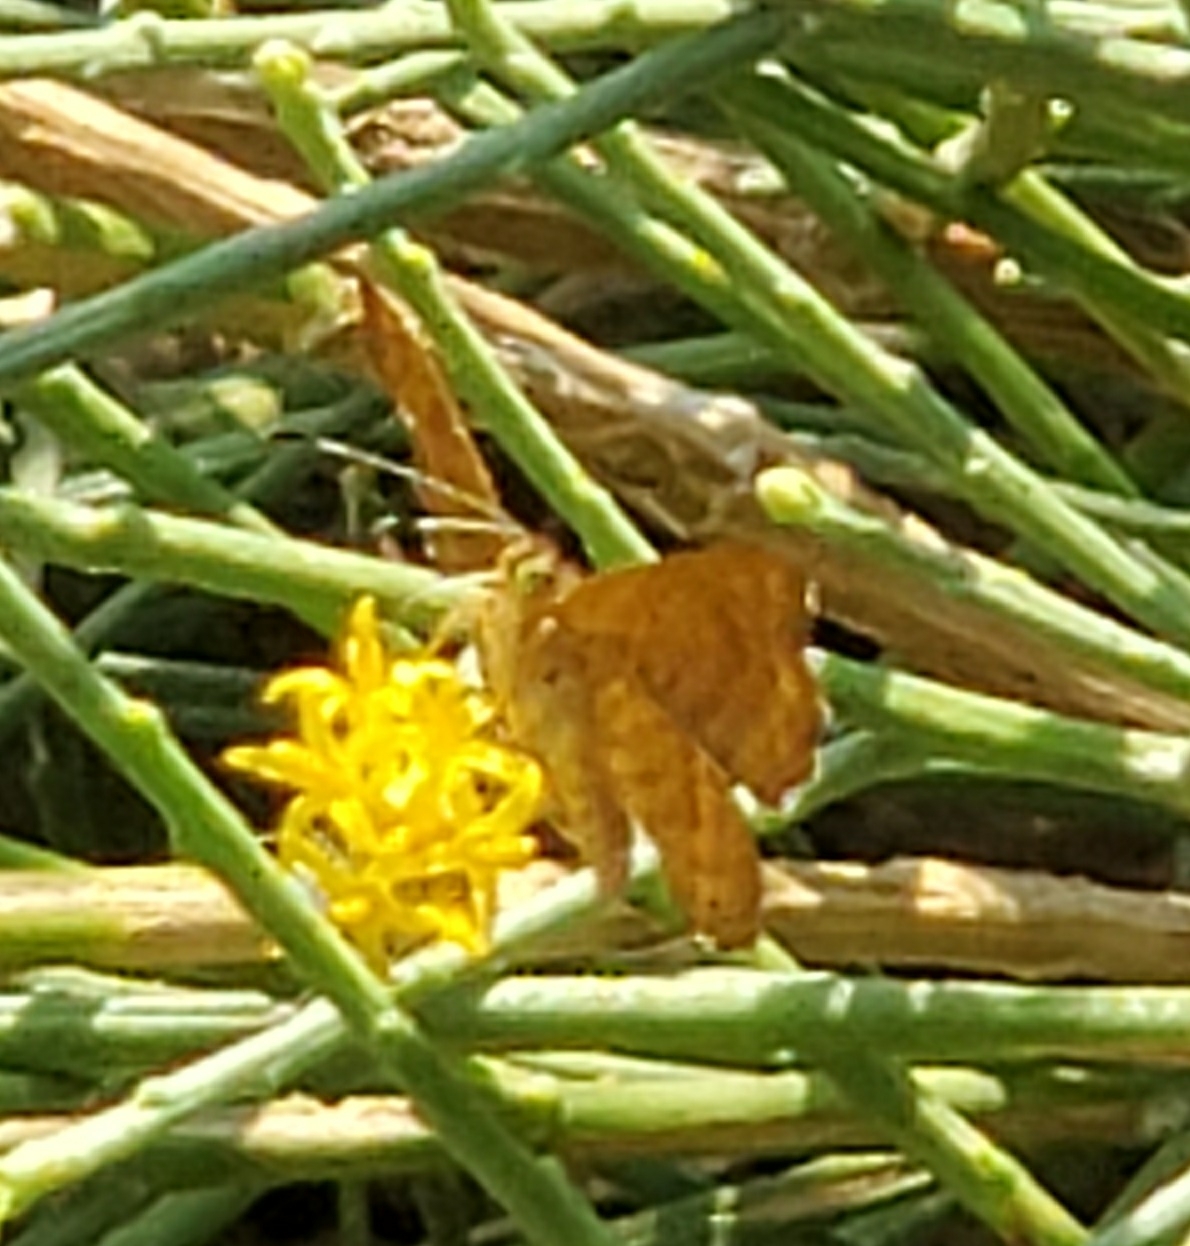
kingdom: Animalia
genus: Calephelis
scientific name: Calephelis nemesis
